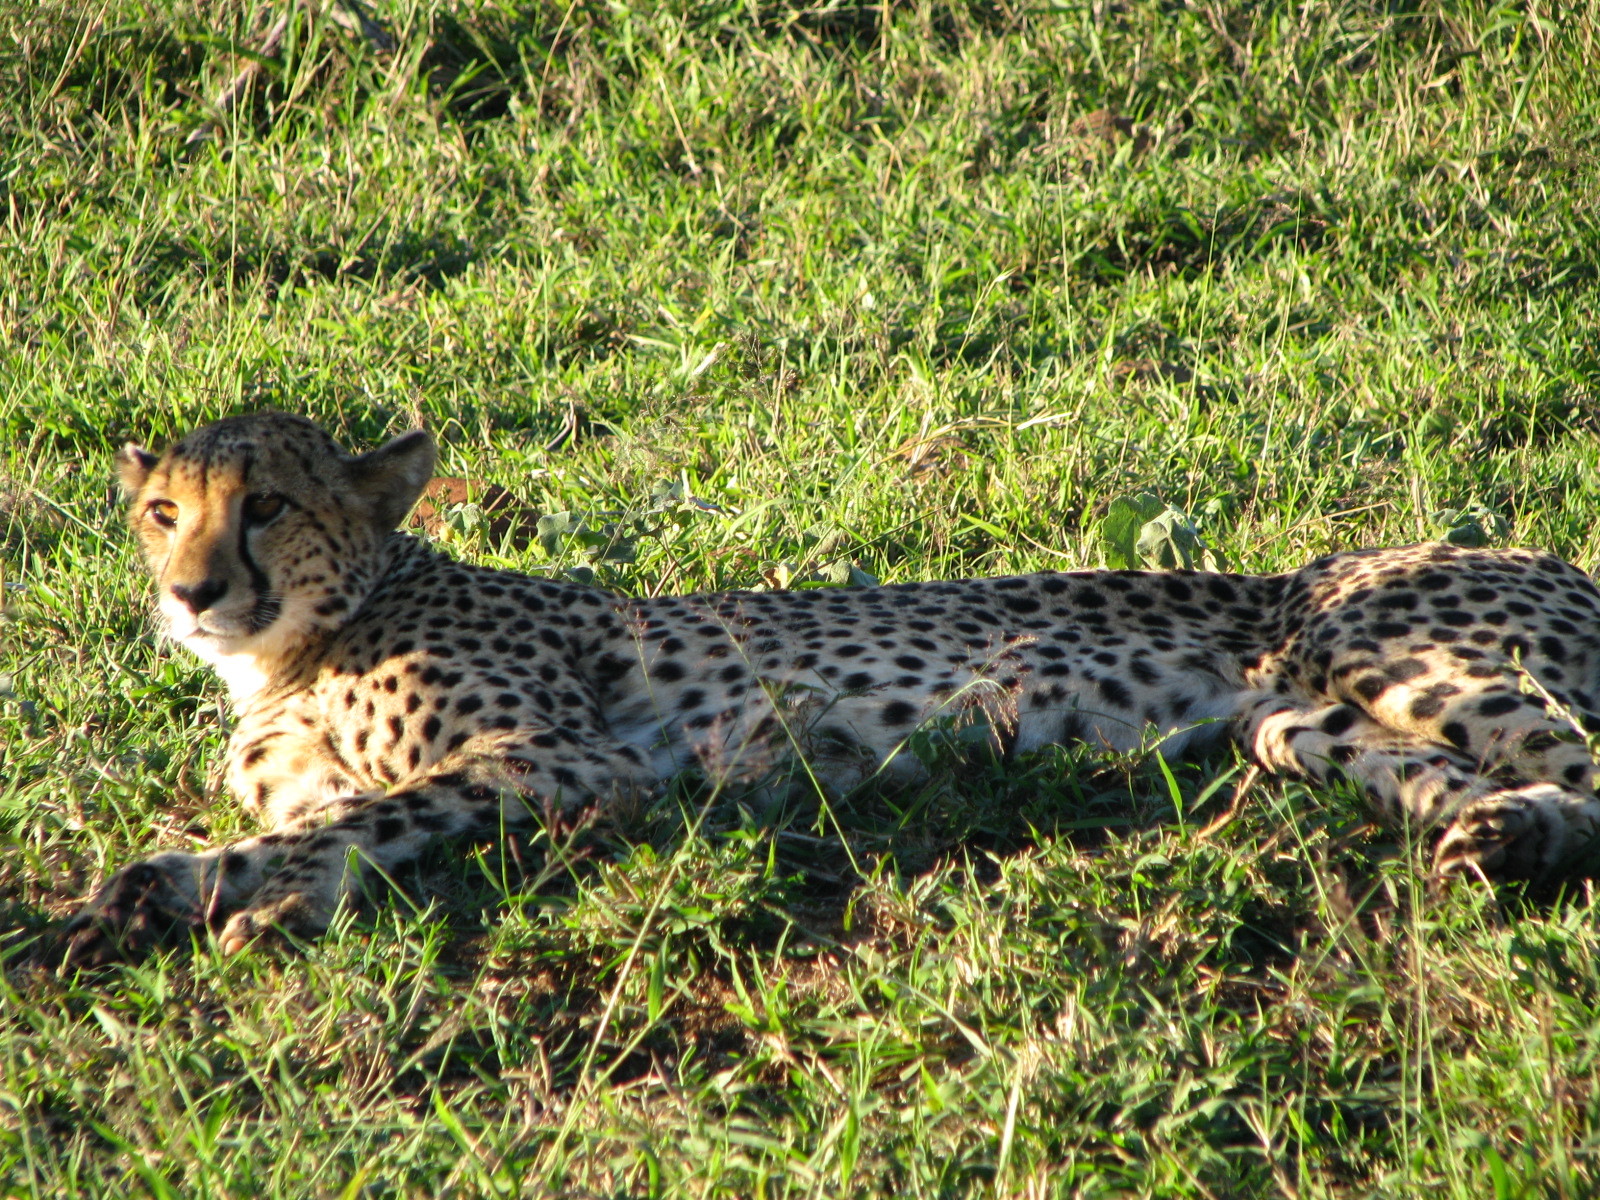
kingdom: Animalia
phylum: Chordata
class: Mammalia
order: Carnivora
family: Felidae
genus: Acinonyx
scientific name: Acinonyx jubatus
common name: Cheetah
